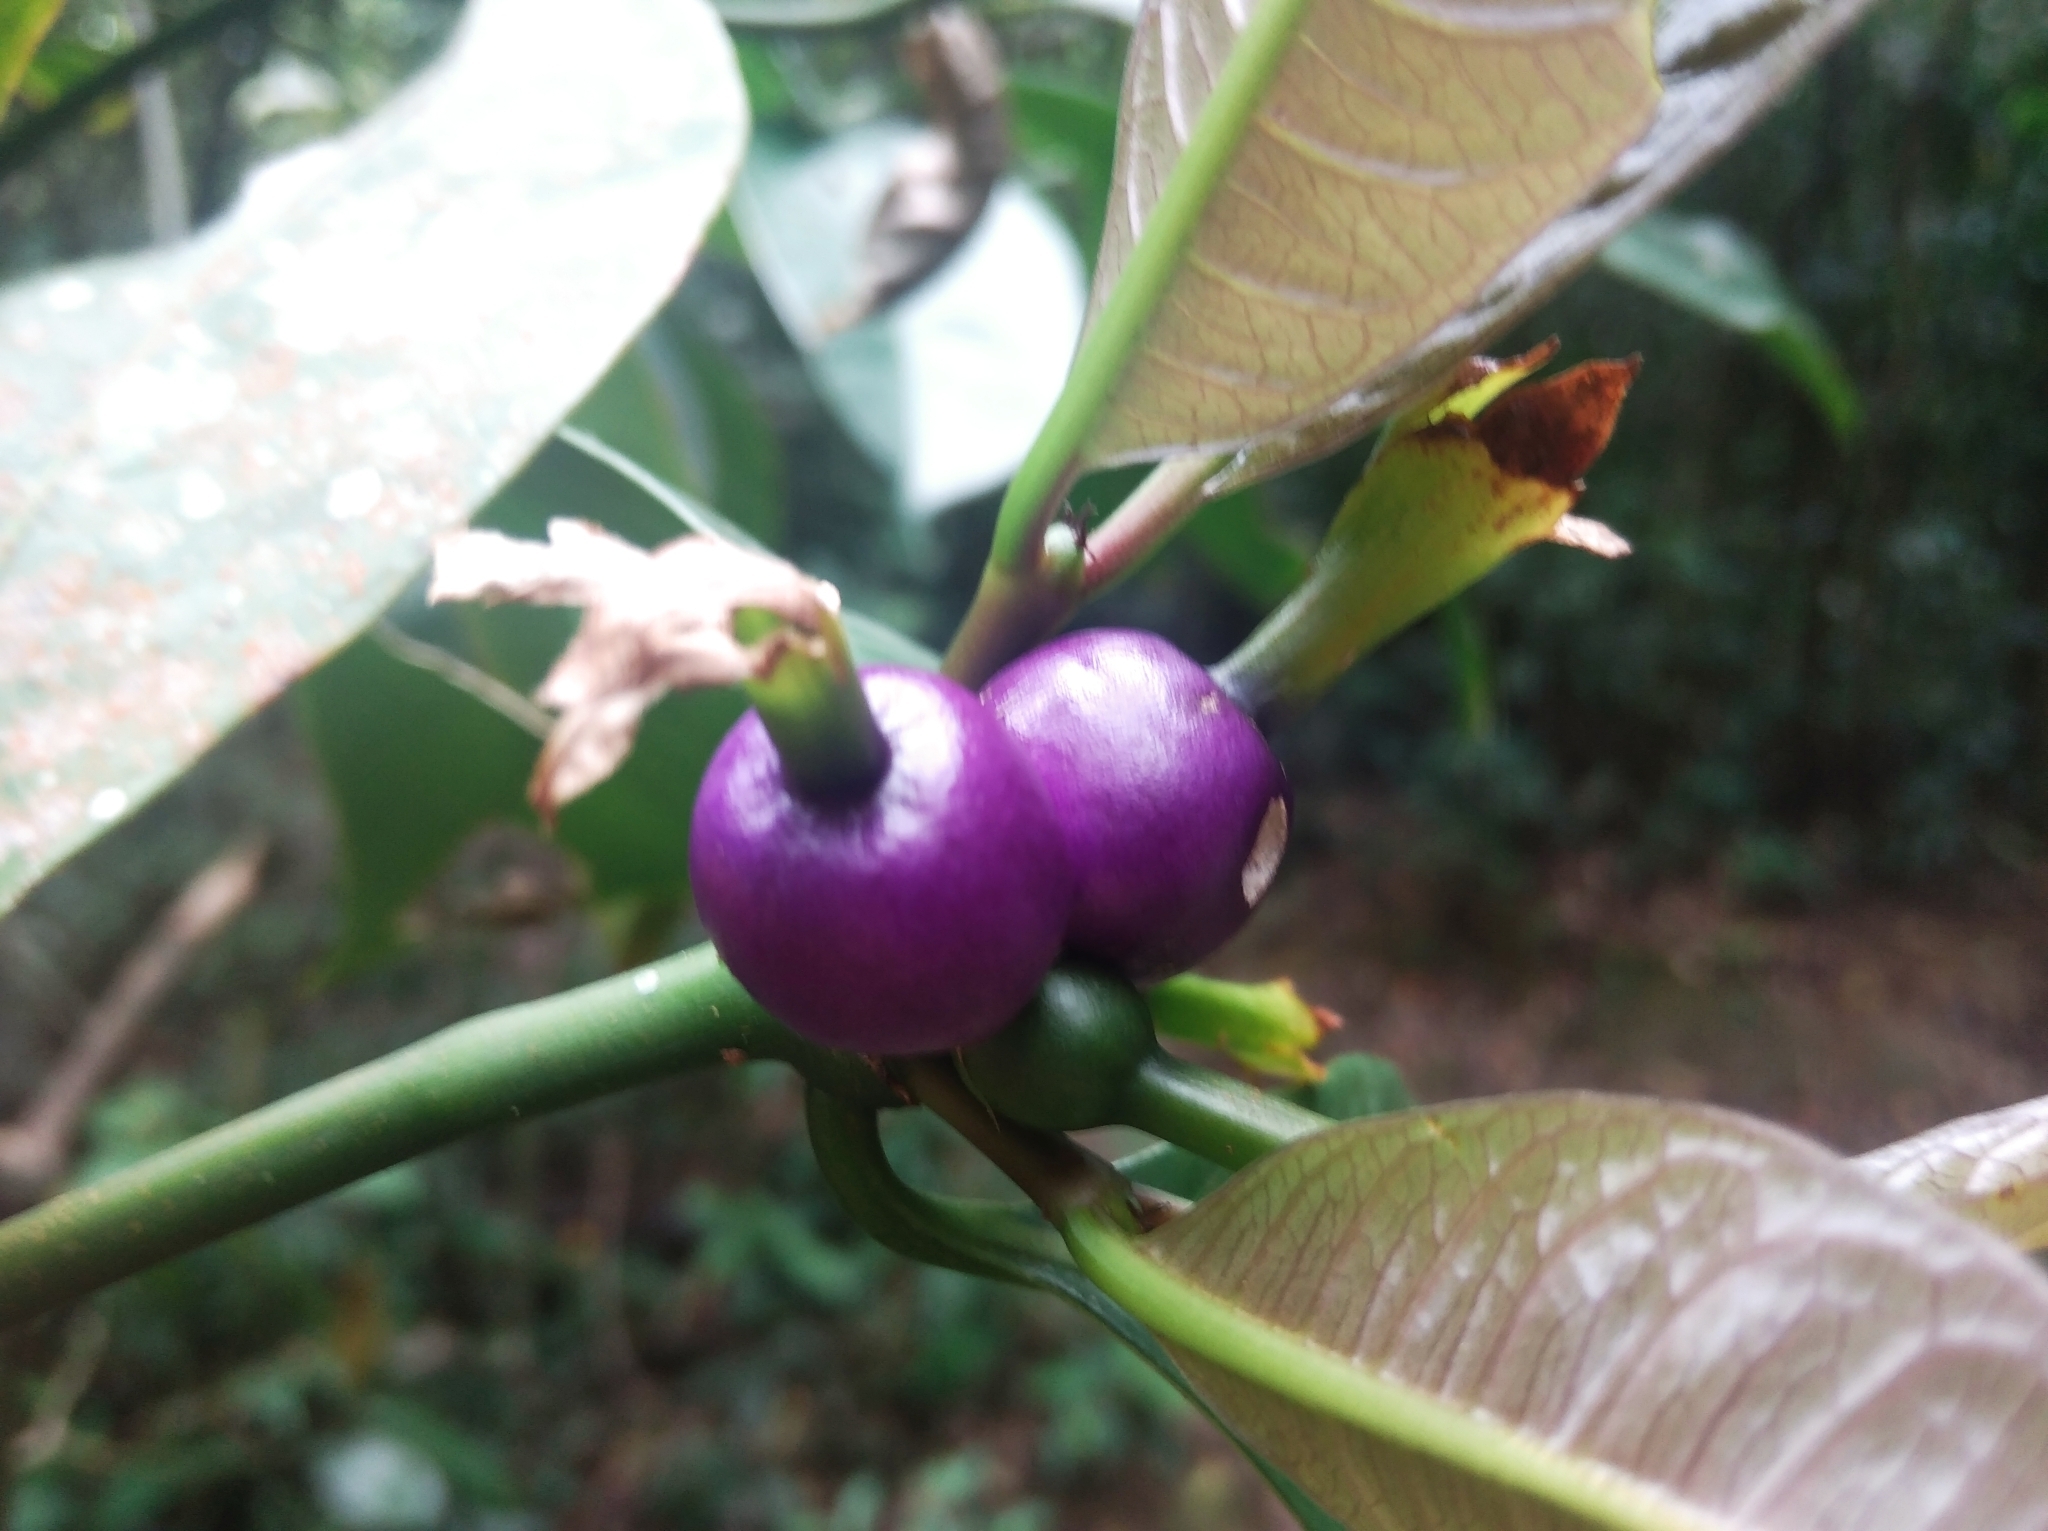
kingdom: Plantae
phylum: Tracheophyta
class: Magnoliopsida
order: Gentianales
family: Rubiaceae
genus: Psychotria
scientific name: Psychotria laciniata
